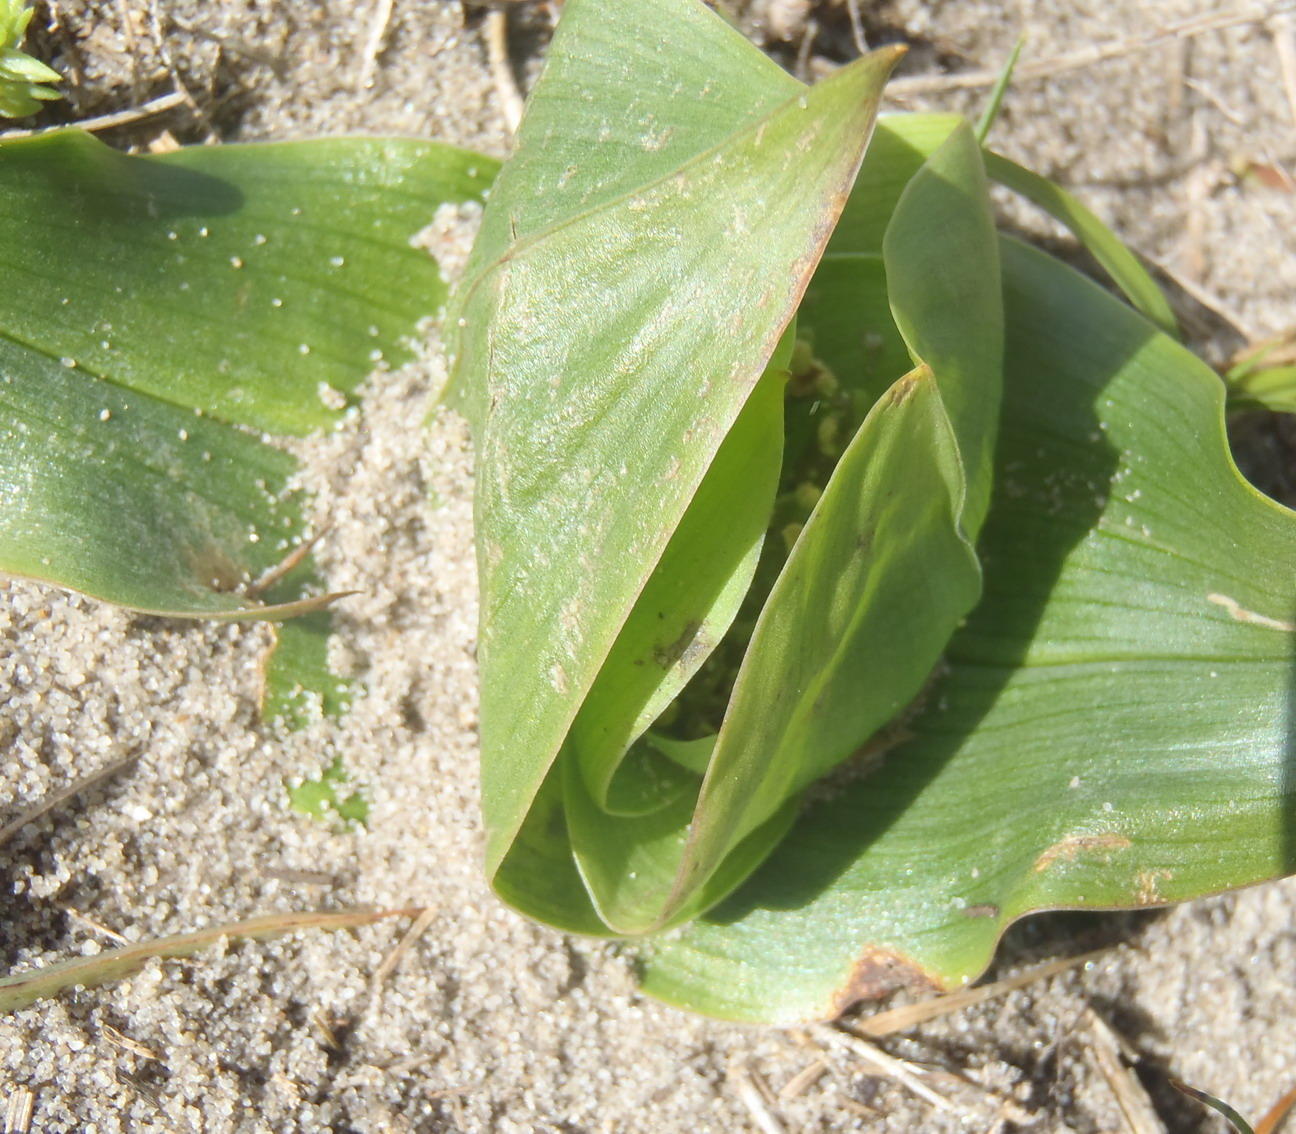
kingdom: Plantae
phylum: Tracheophyta
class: Liliopsida
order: Liliales
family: Colchicaceae
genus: Colchicum
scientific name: Colchicum eucomoides
